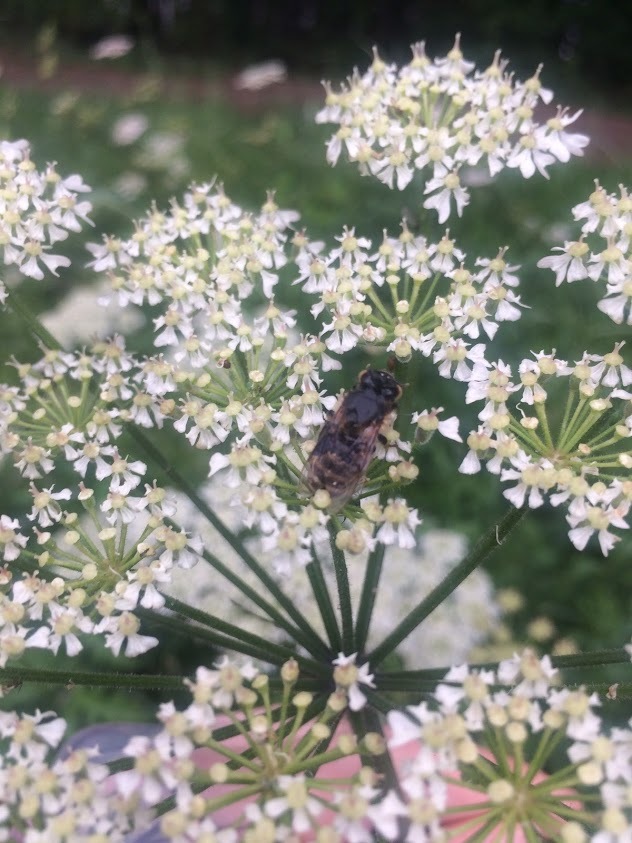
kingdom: Animalia
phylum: Arthropoda
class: Insecta
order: Hymenoptera
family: Apidae
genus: Apis
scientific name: Apis mellifera
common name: Honey bee
